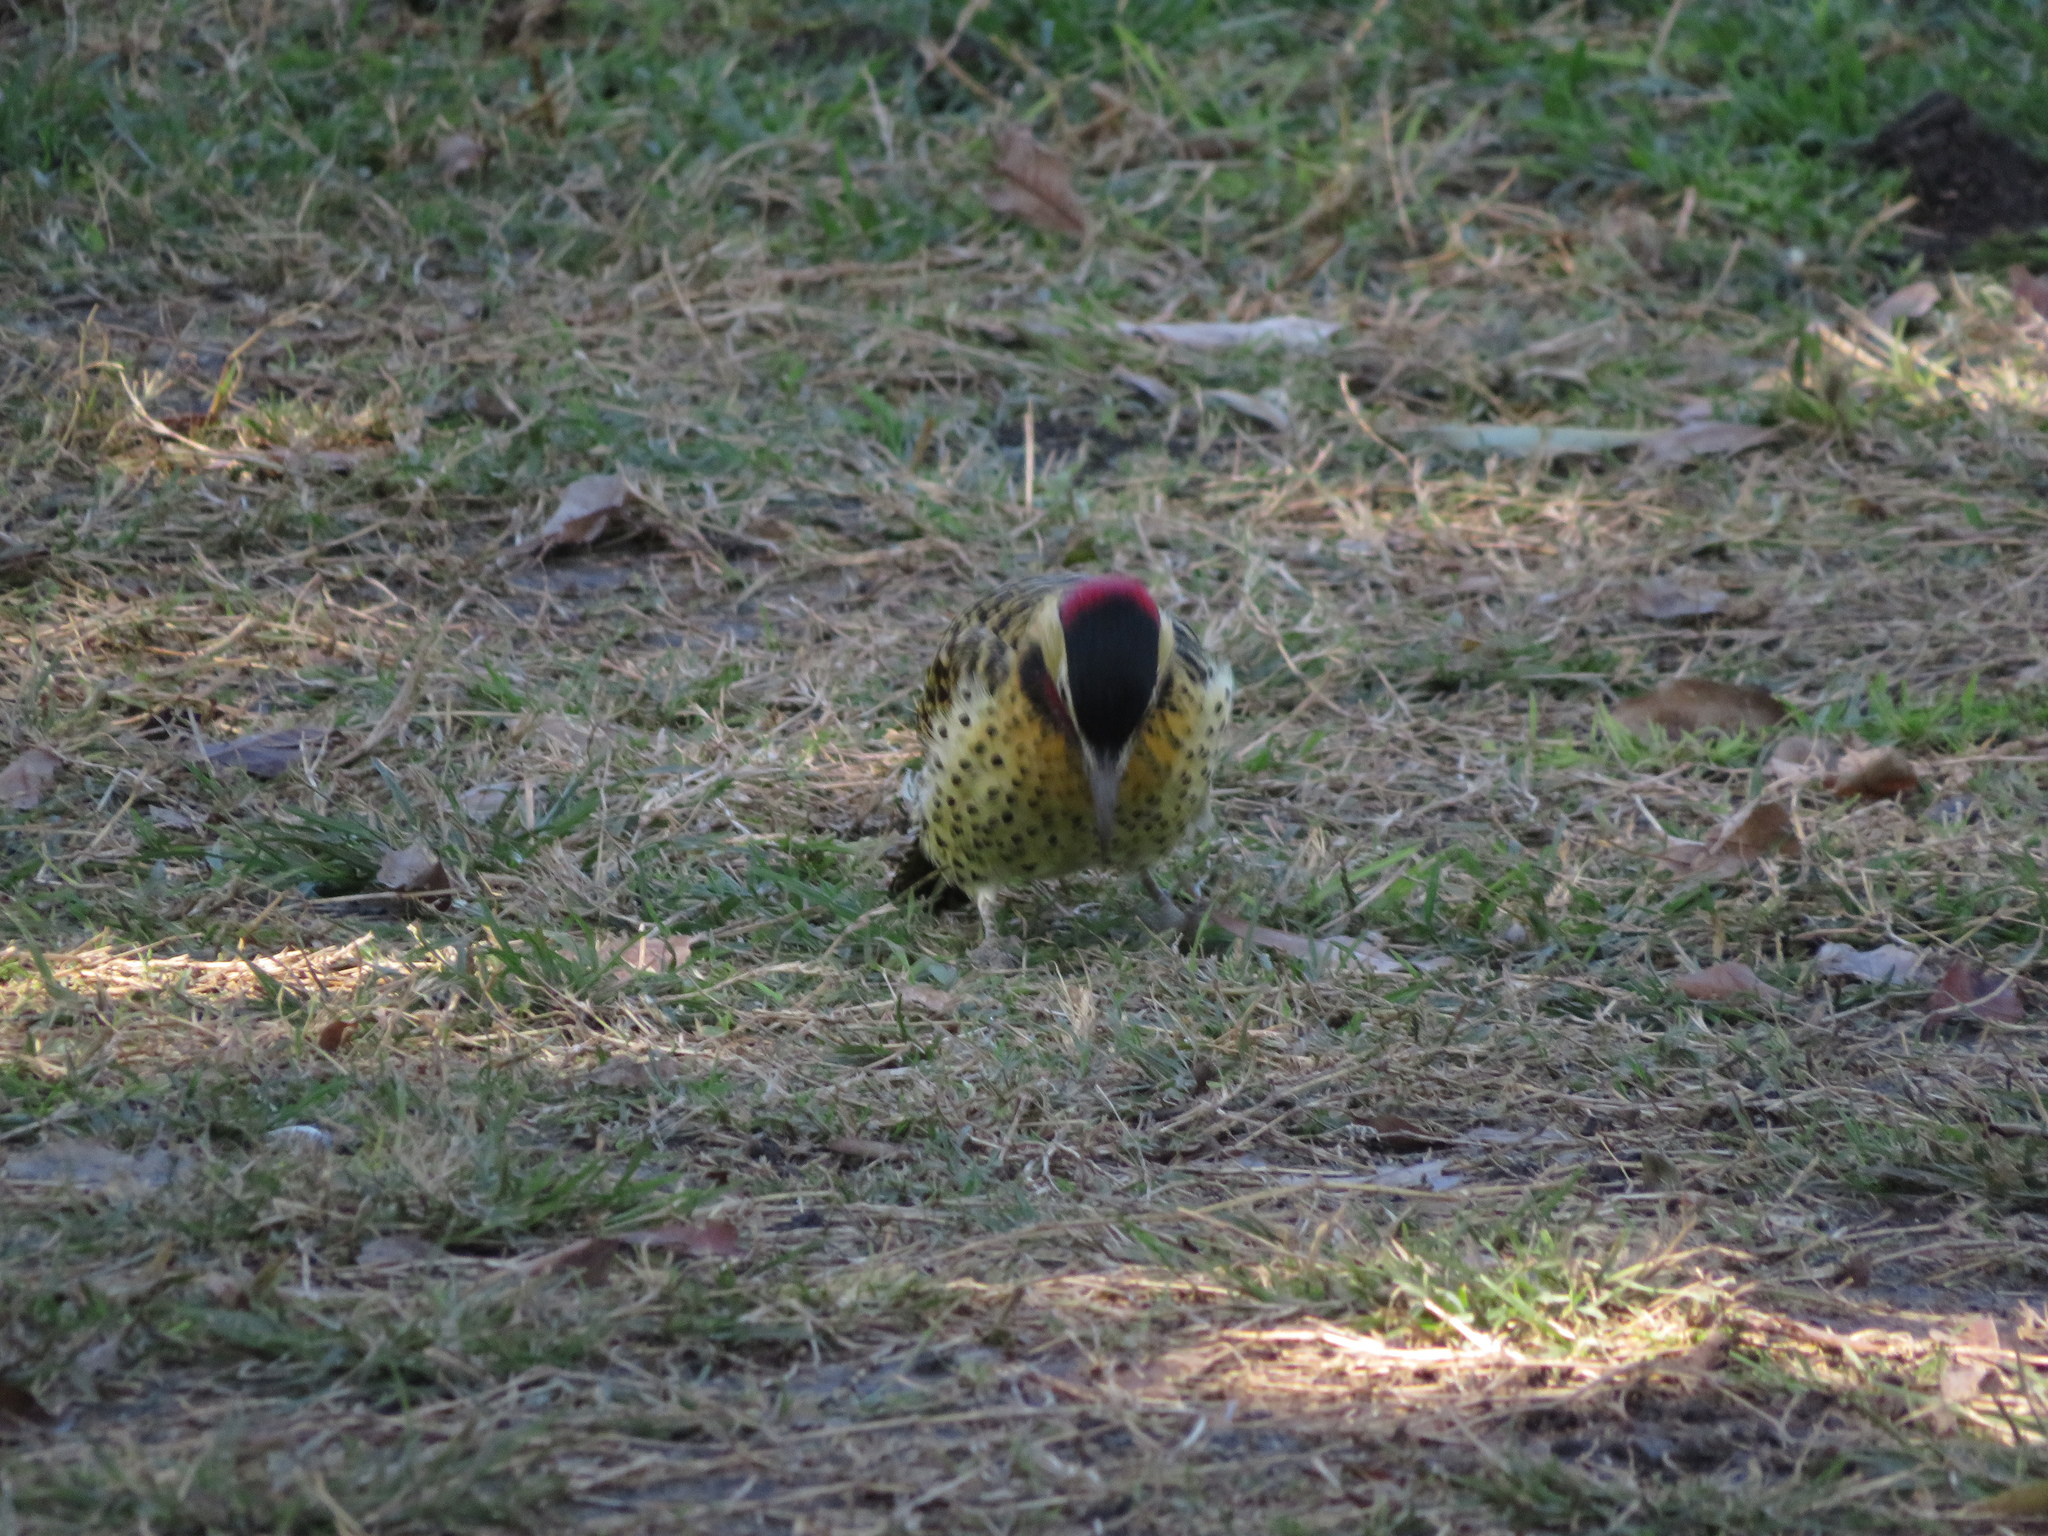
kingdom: Animalia
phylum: Chordata
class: Aves
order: Piciformes
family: Picidae
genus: Colaptes
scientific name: Colaptes melanochloros
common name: Green-barred woodpecker
